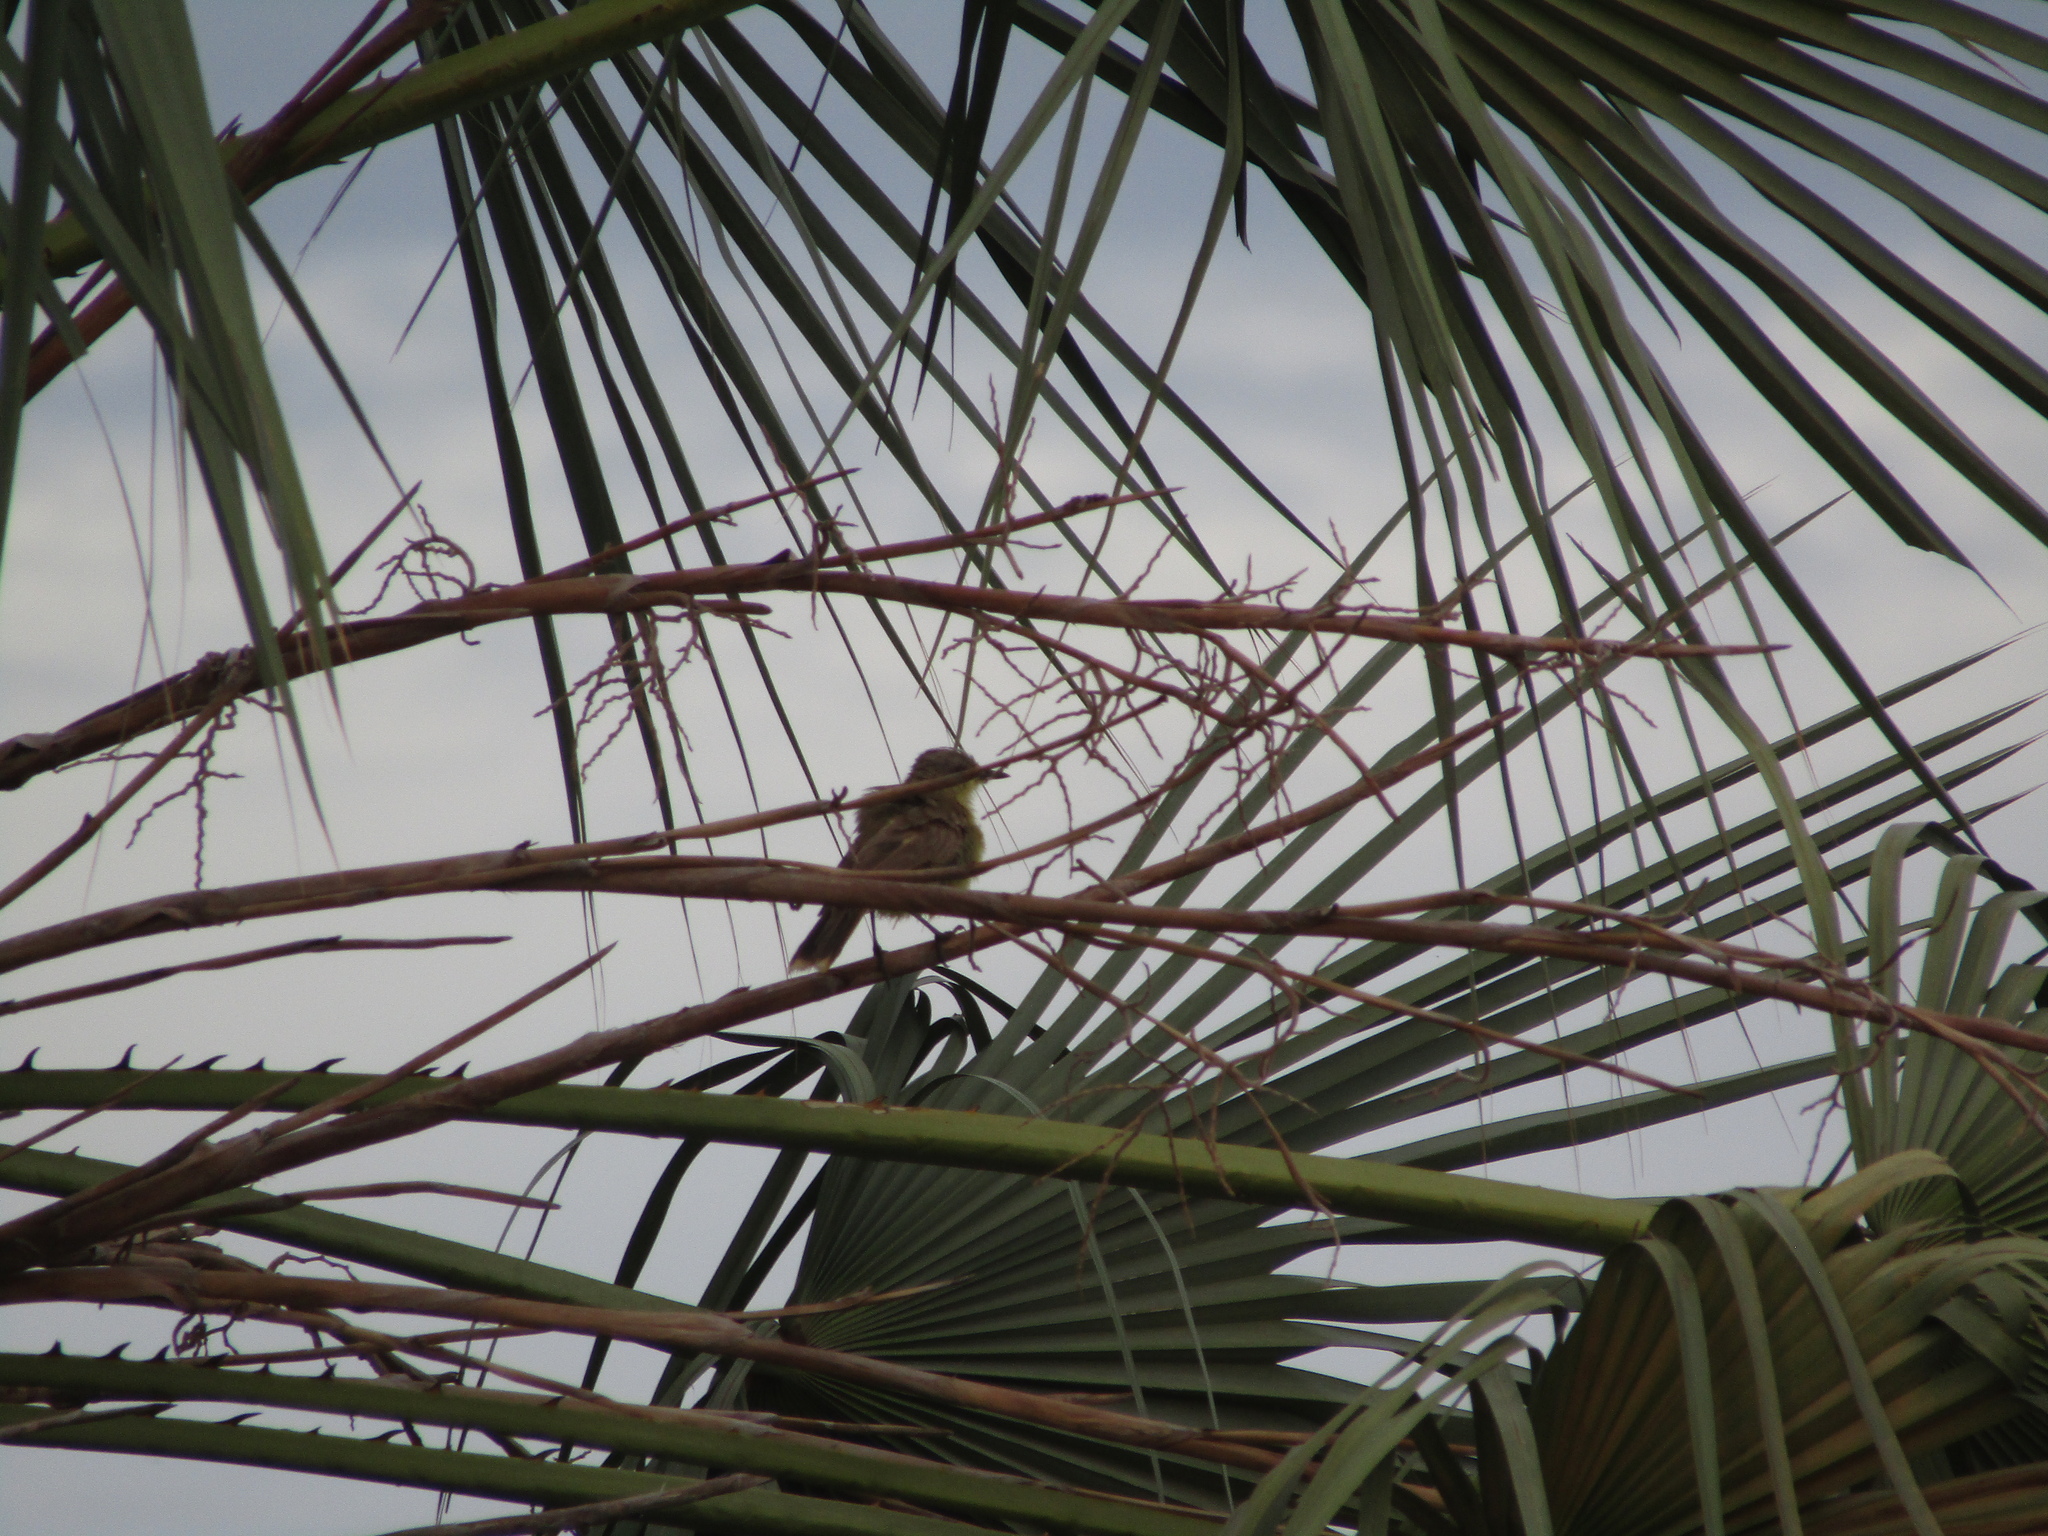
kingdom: Animalia
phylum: Chordata
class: Aves
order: Passeriformes
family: Tyrannidae
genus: Machetornis
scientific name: Machetornis rixosa
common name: Cattle tyrant
